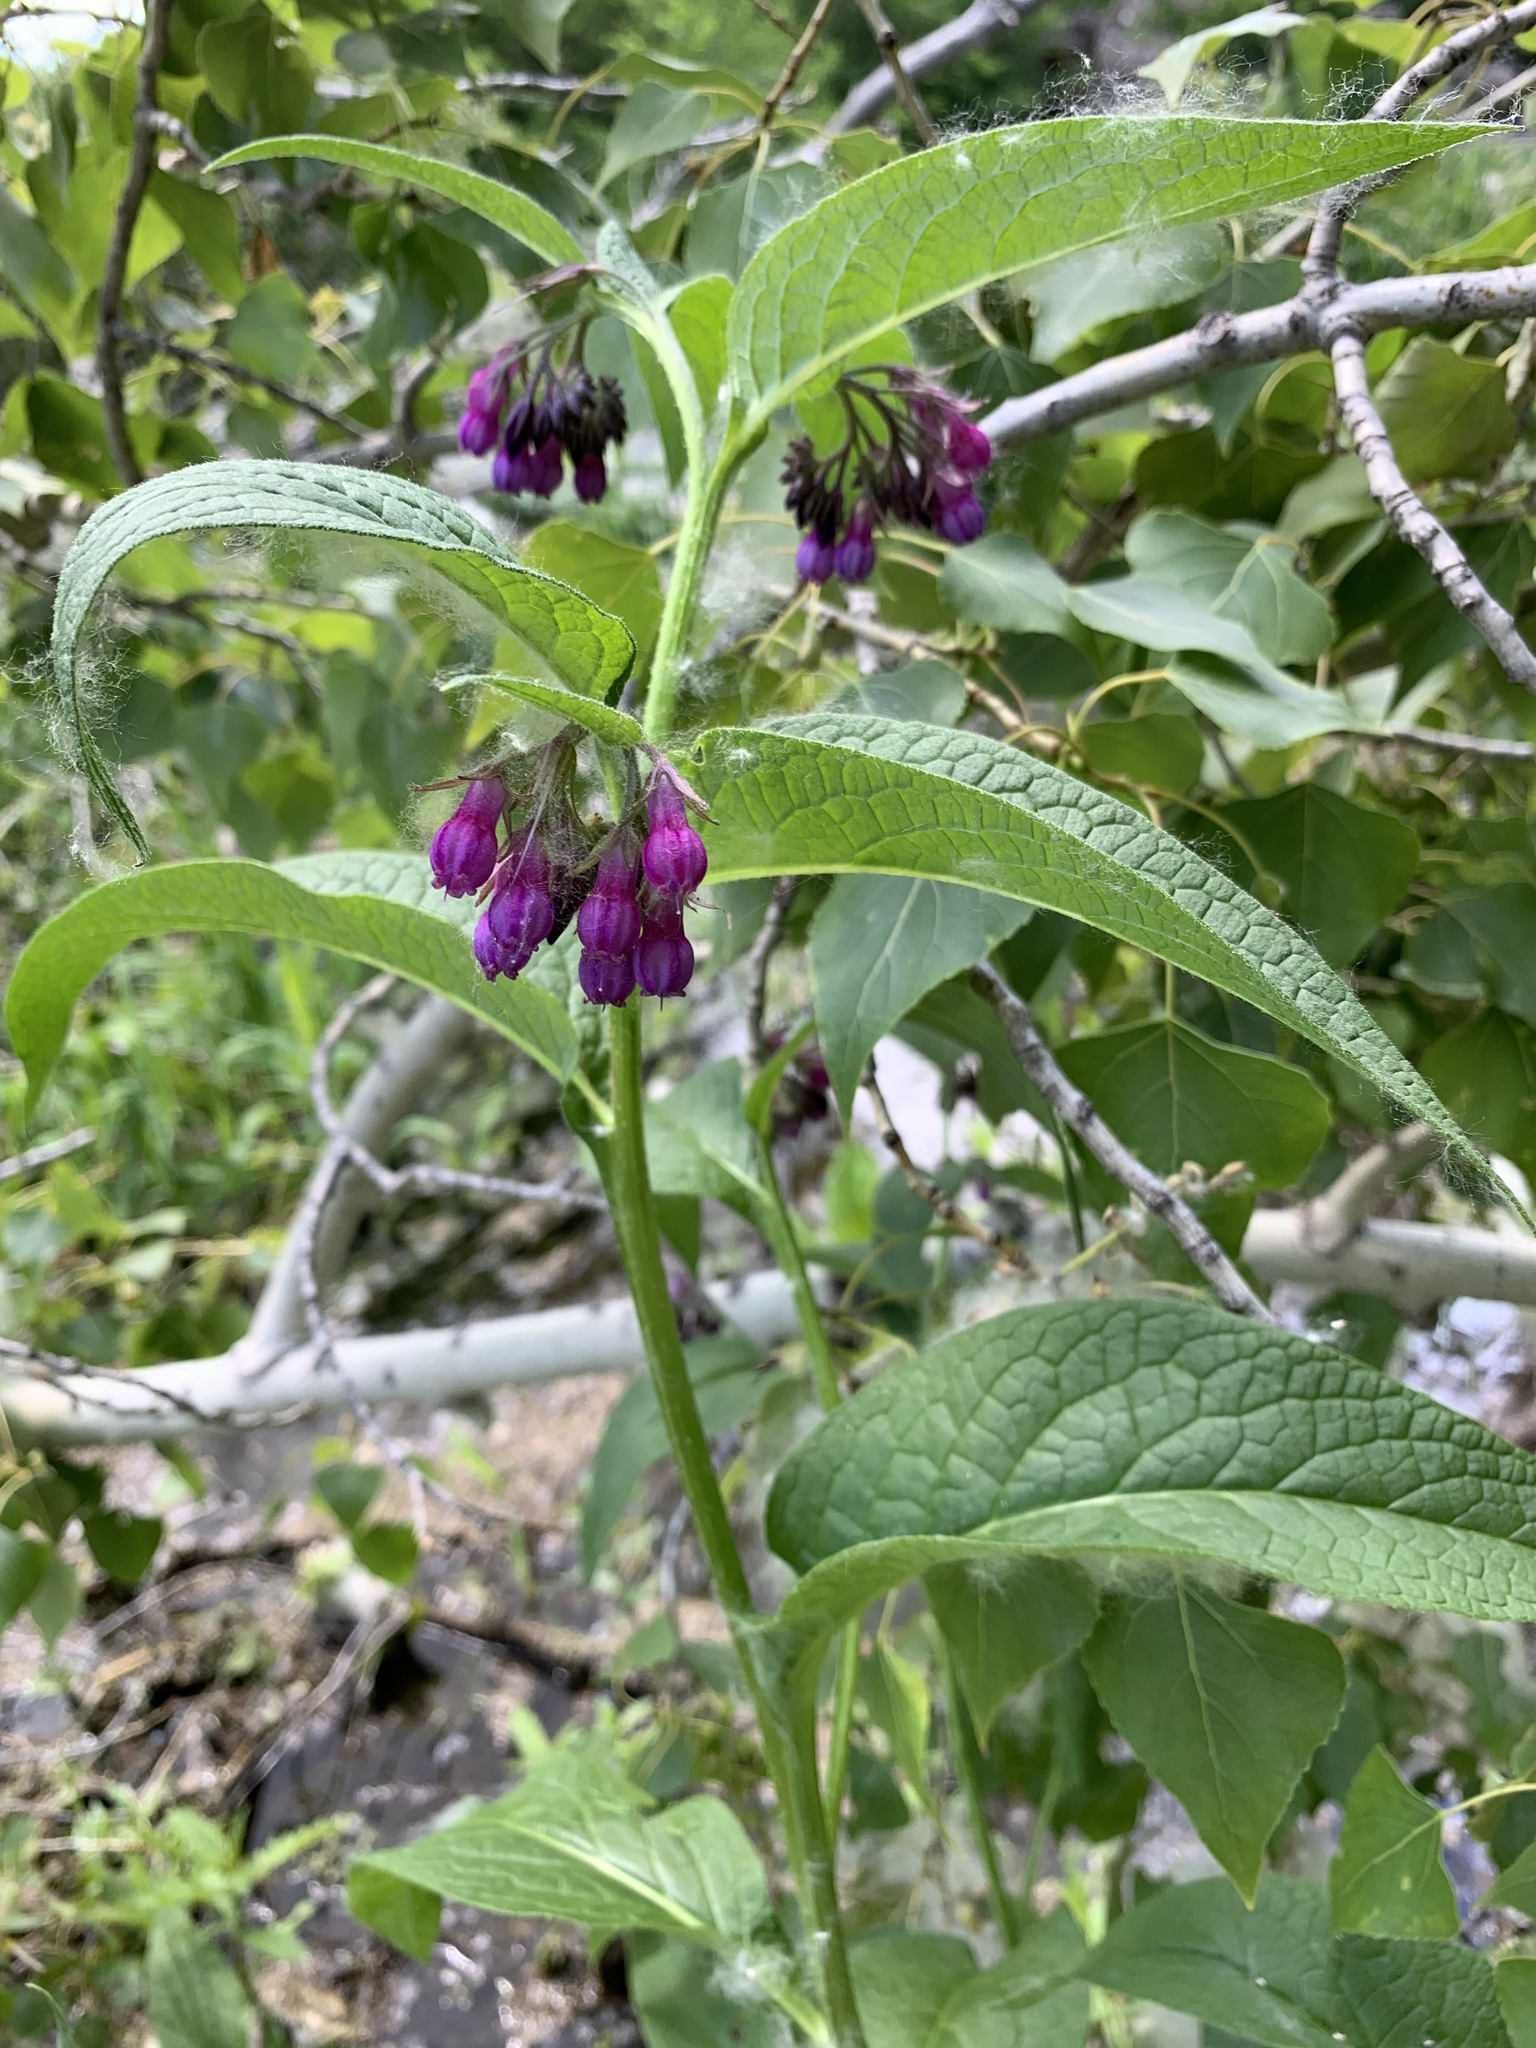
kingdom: Plantae
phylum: Tracheophyta
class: Magnoliopsida
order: Boraginales
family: Boraginaceae
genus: Symphytum
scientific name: Symphytum officinale
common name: Common comfrey
